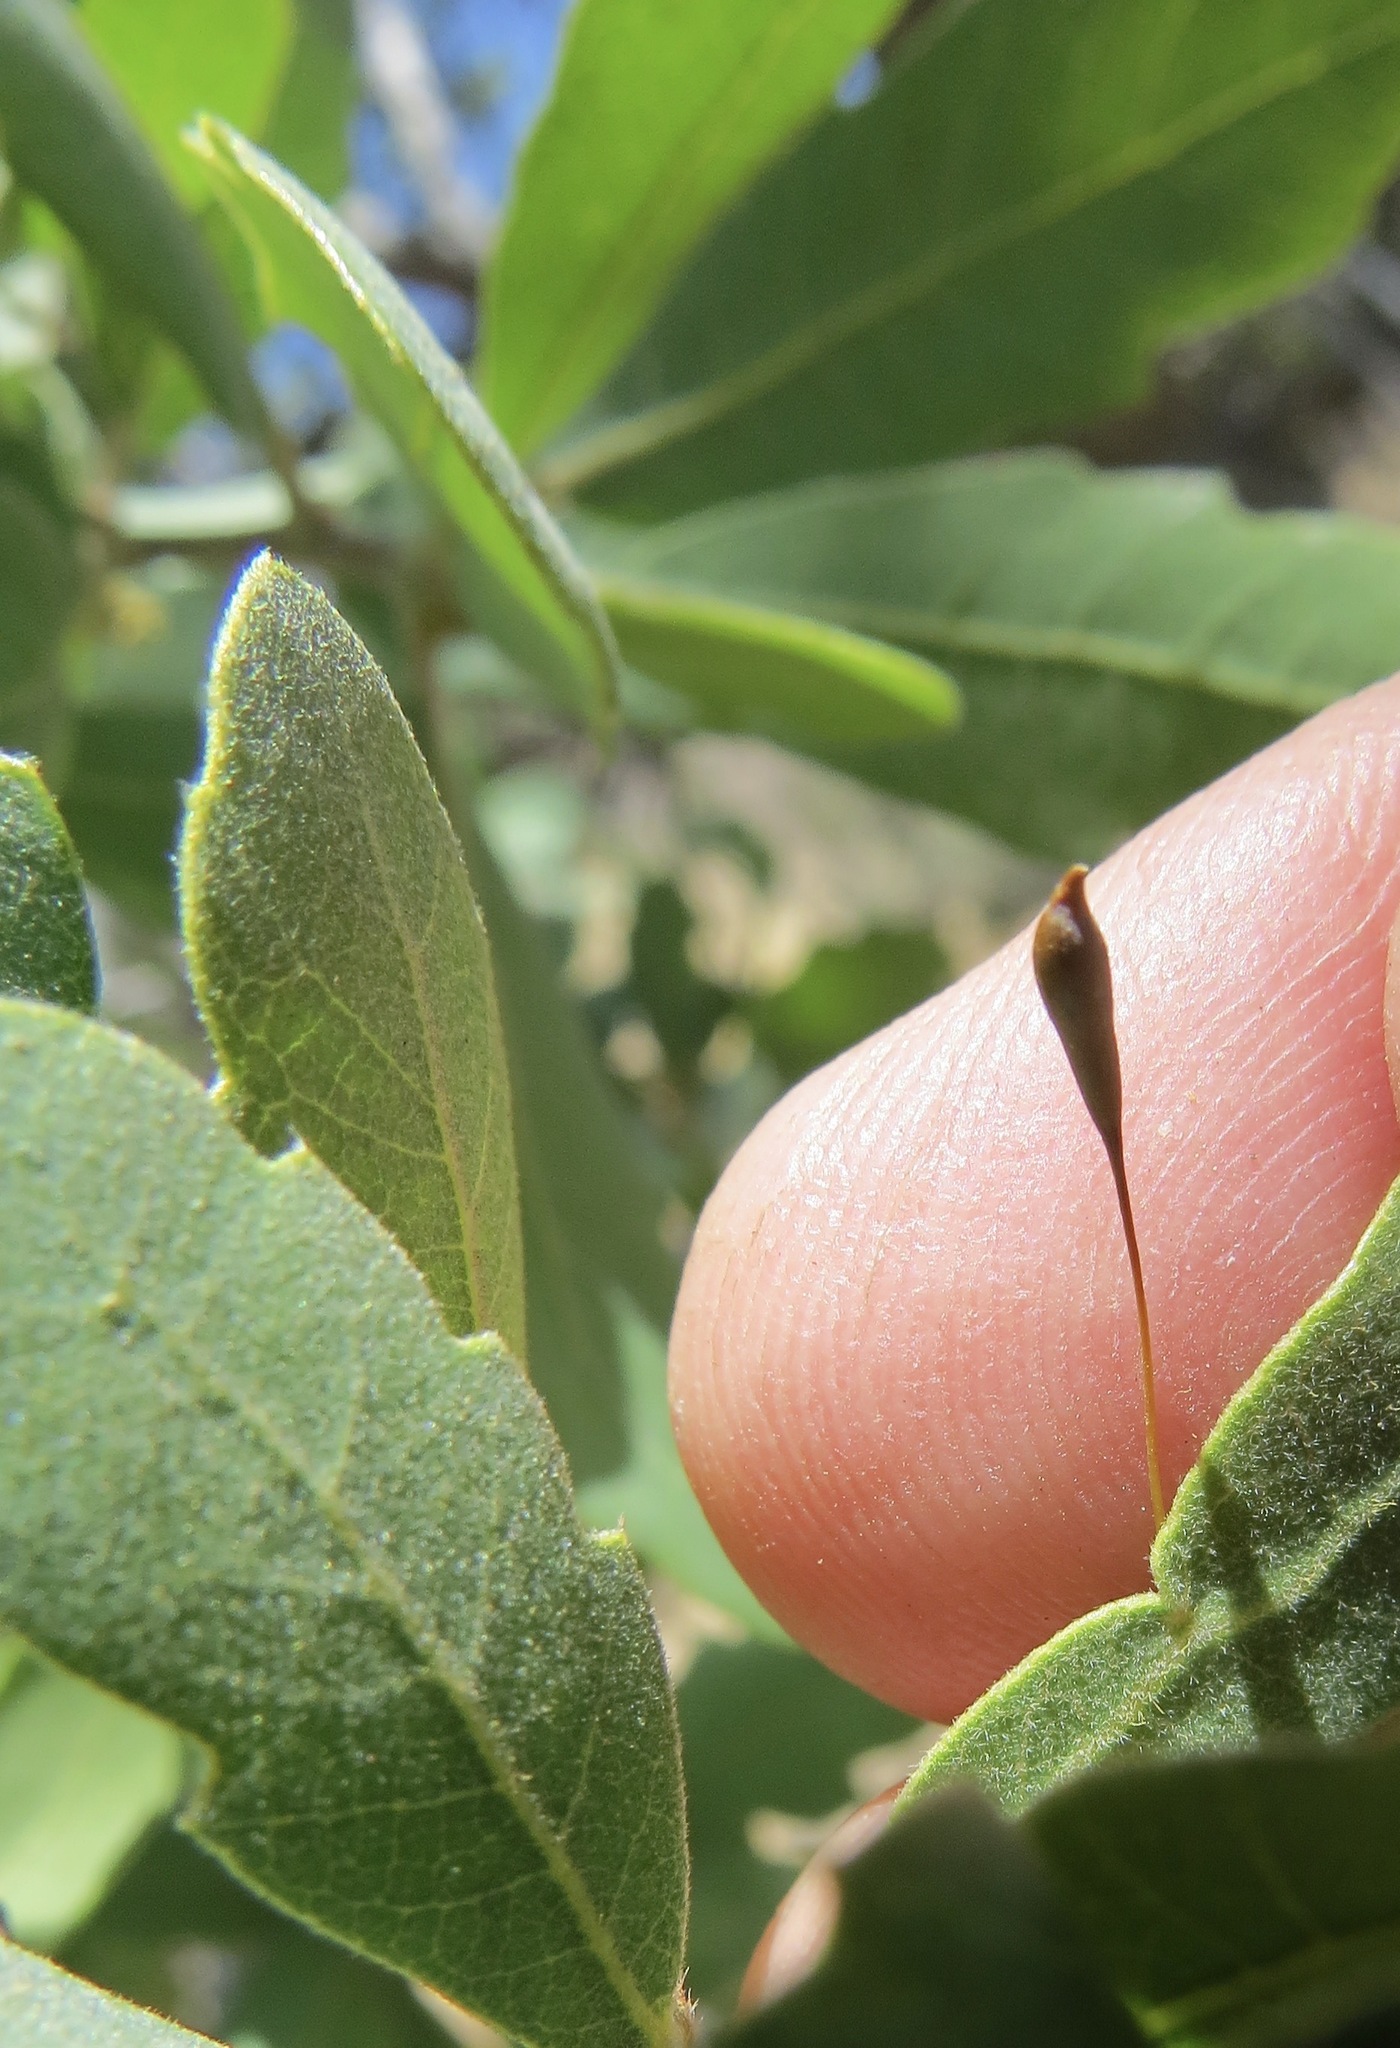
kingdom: Animalia
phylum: Arthropoda
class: Insecta
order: Hymenoptera
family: Cynipidae
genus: Andricus
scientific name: Andricus
